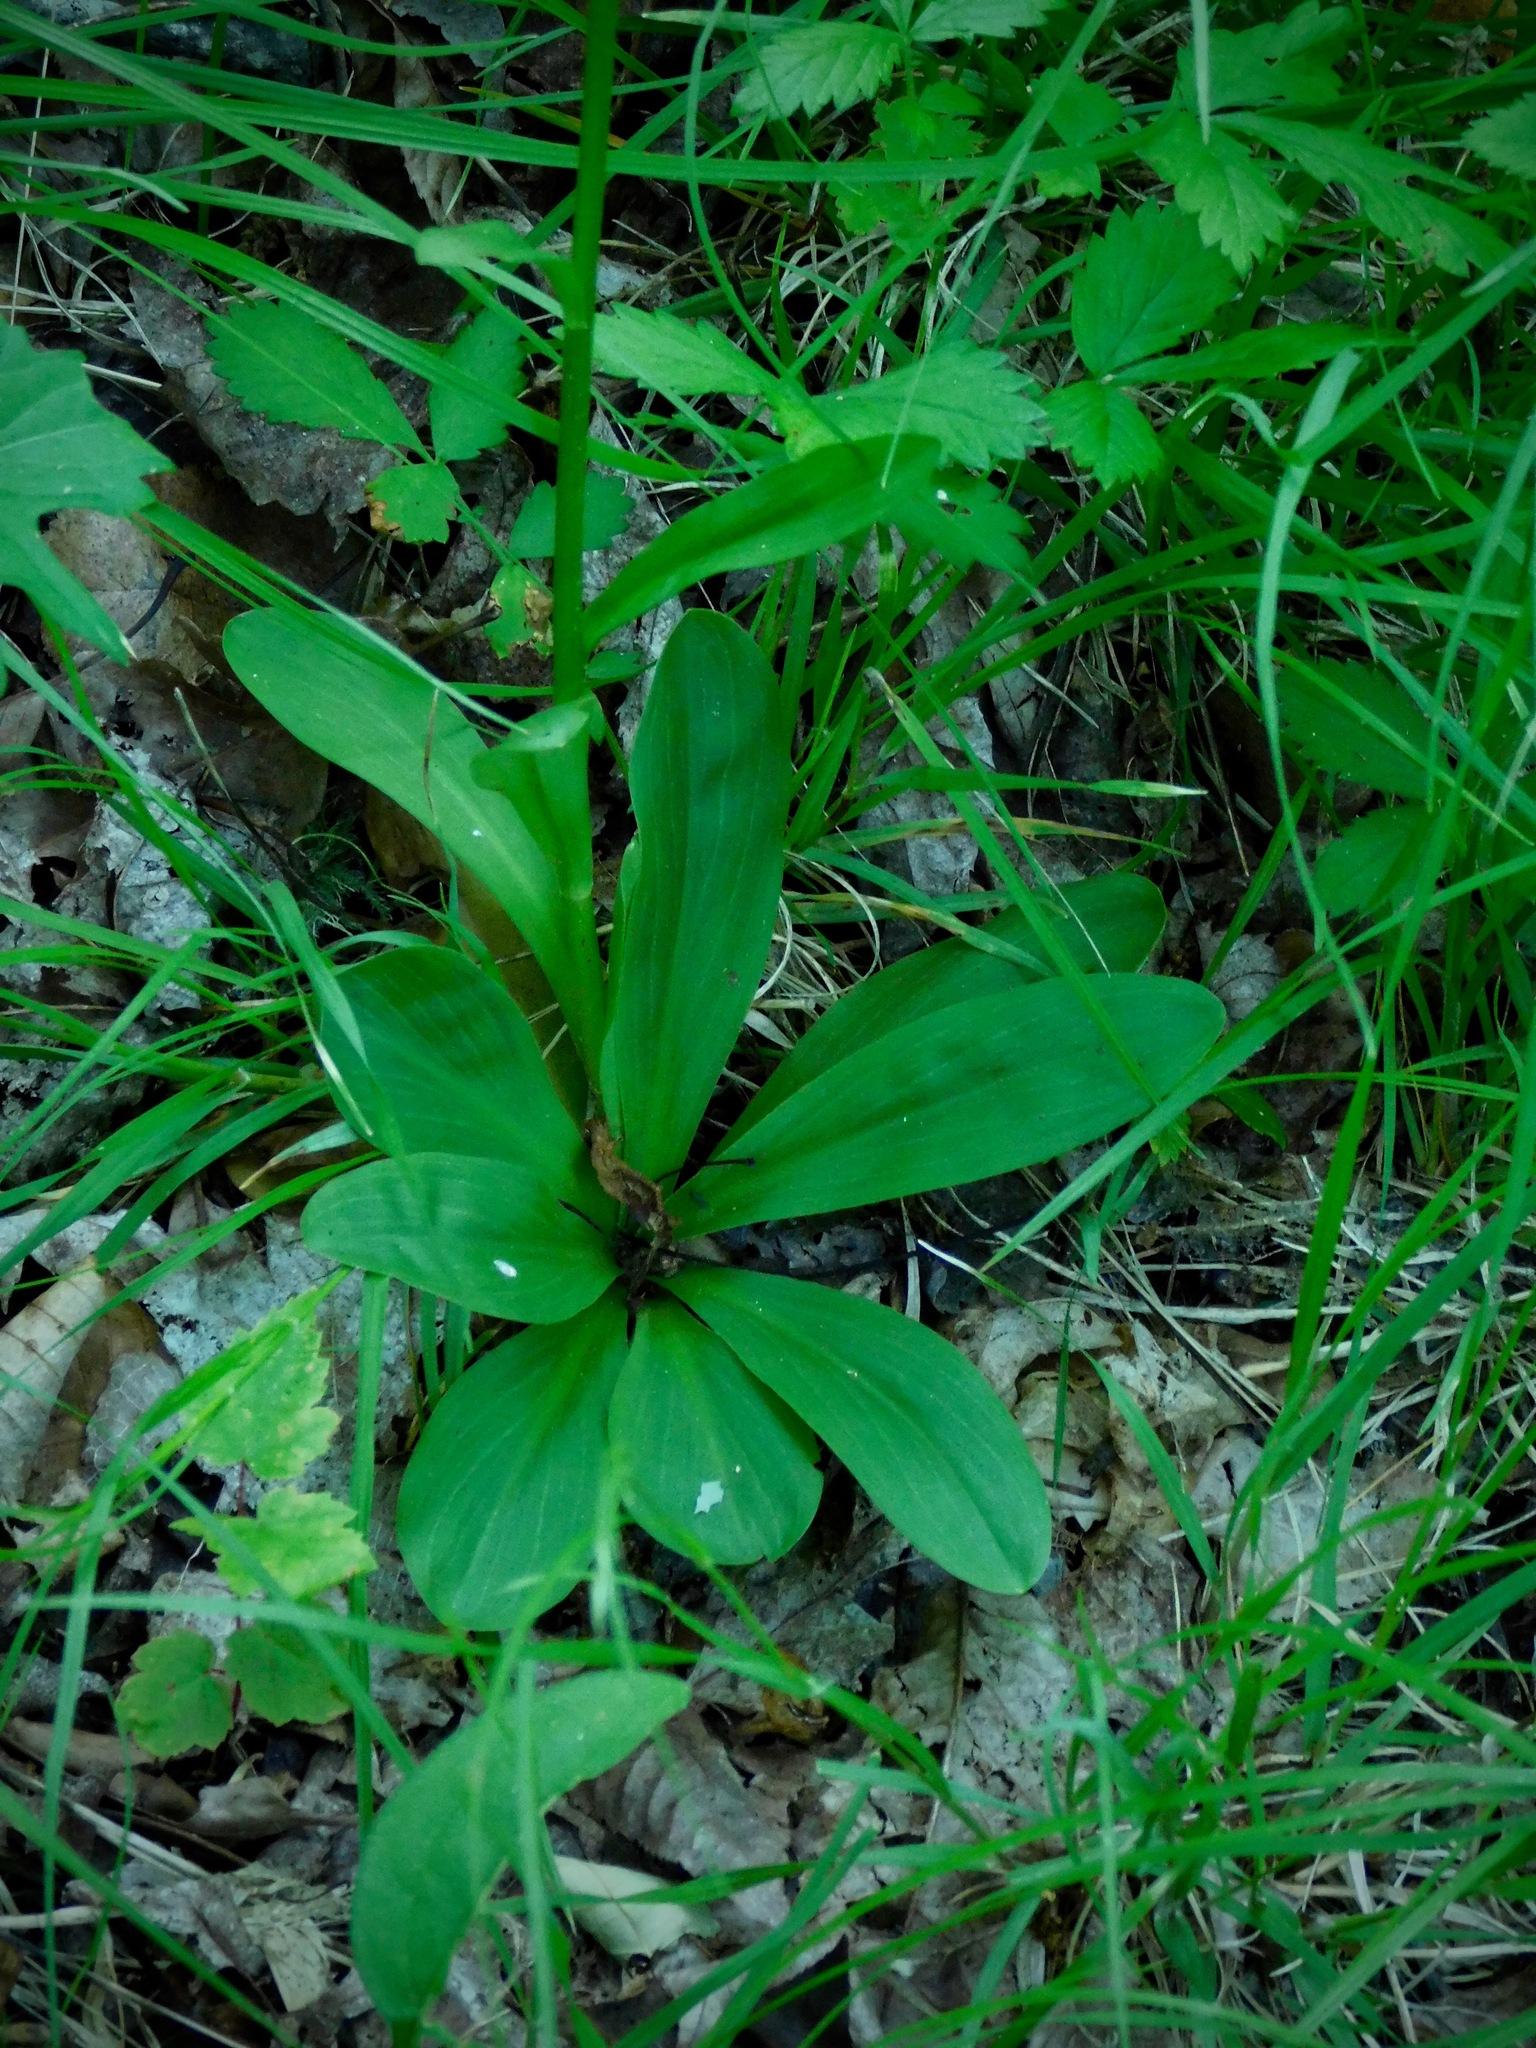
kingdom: Plantae
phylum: Tracheophyta
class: Liliopsida
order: Liliales
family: Melanthiaceae
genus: Chamaelirium
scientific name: Chamaelirium luteum
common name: Fairy-wand
